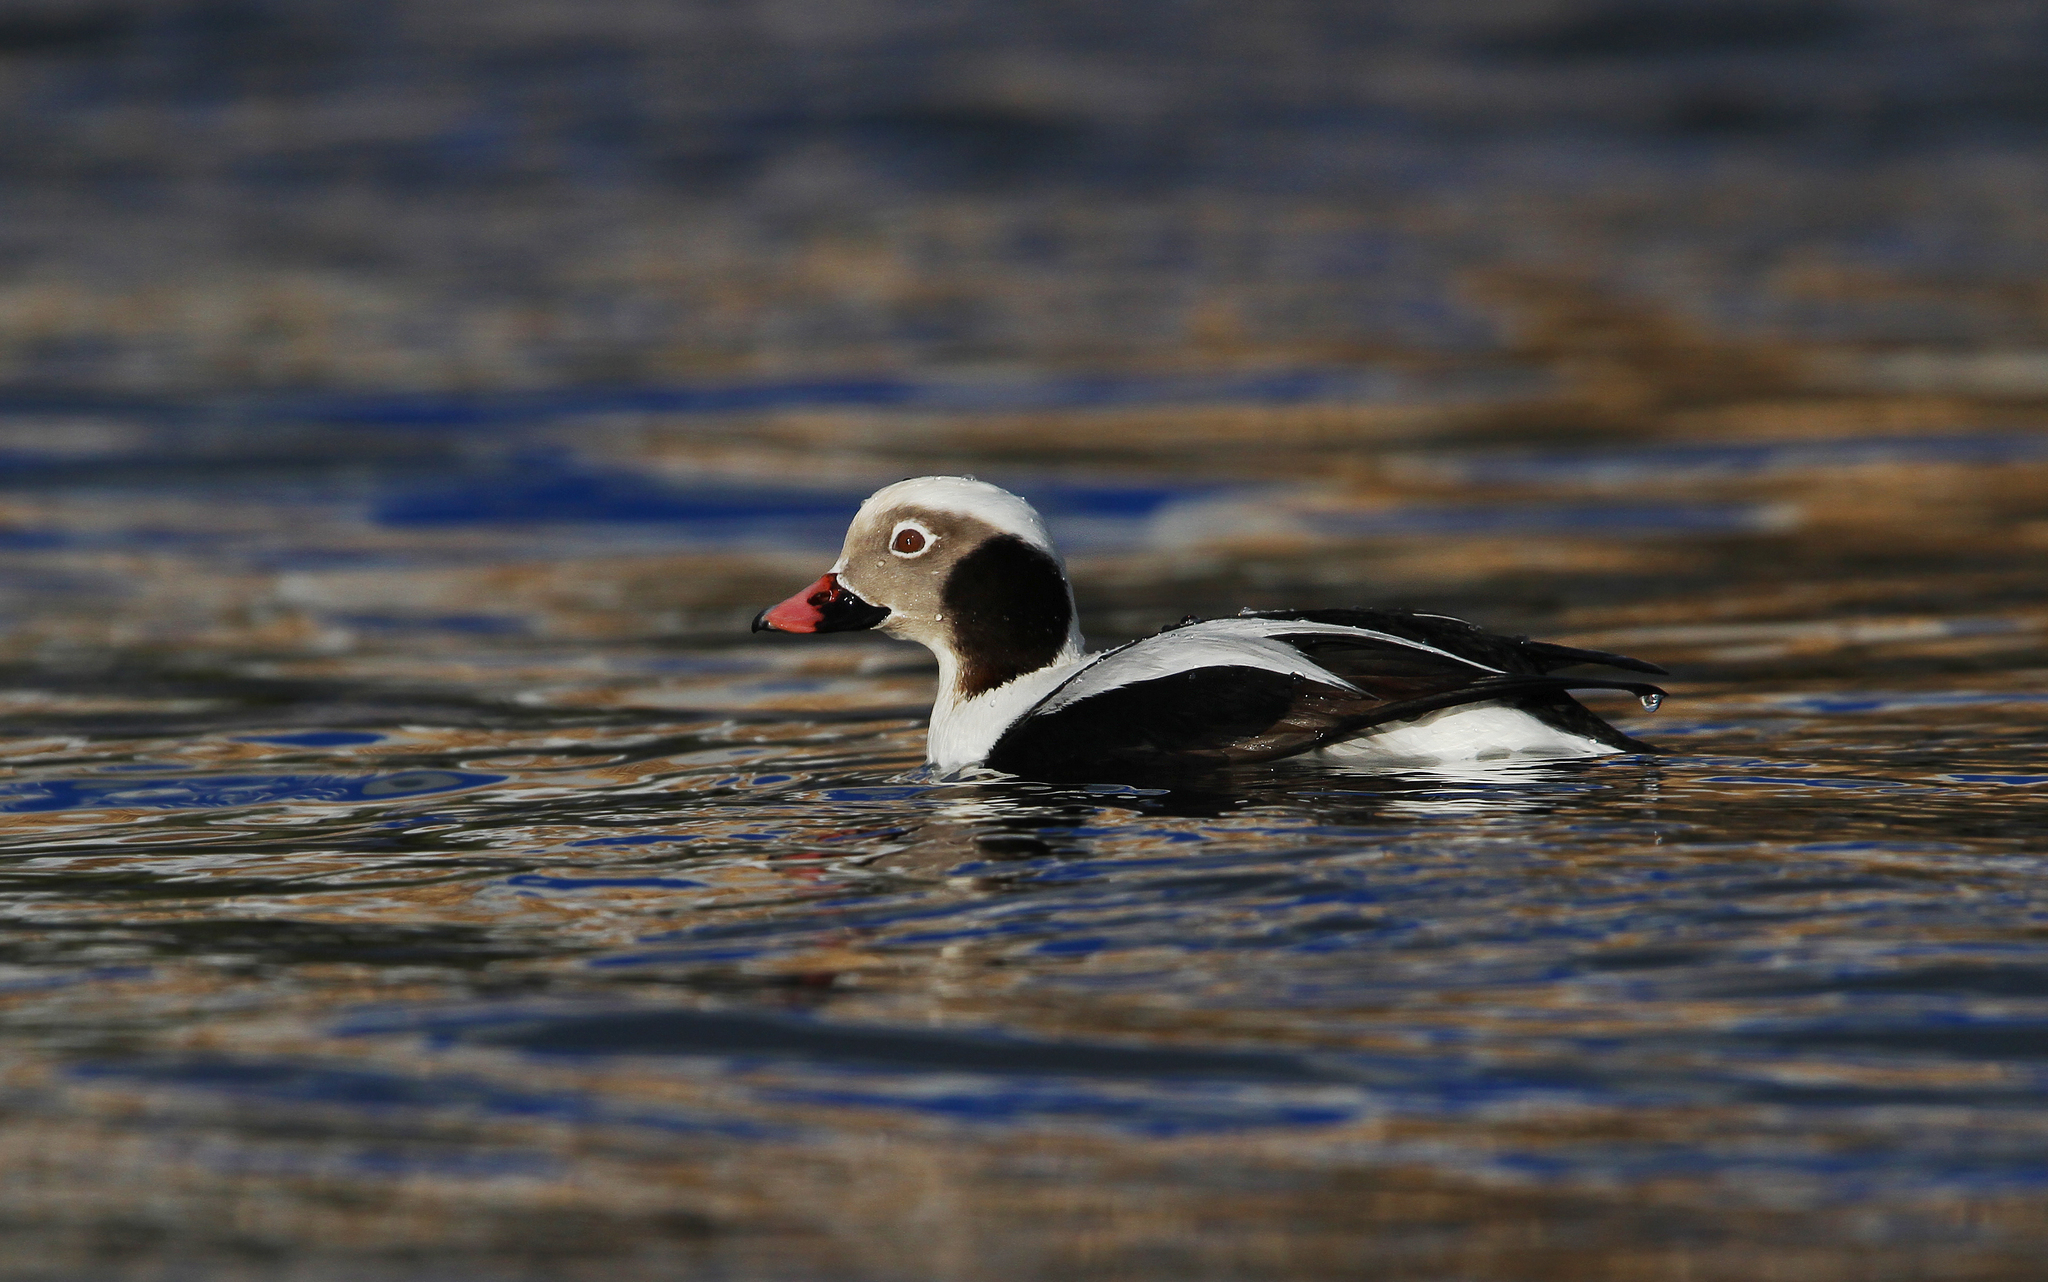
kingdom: Animalia
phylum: Chordata
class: Aves
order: Anseriformes
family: Anatidae
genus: Clangula
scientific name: Clangula hyemalis
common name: Long-tailed duck
